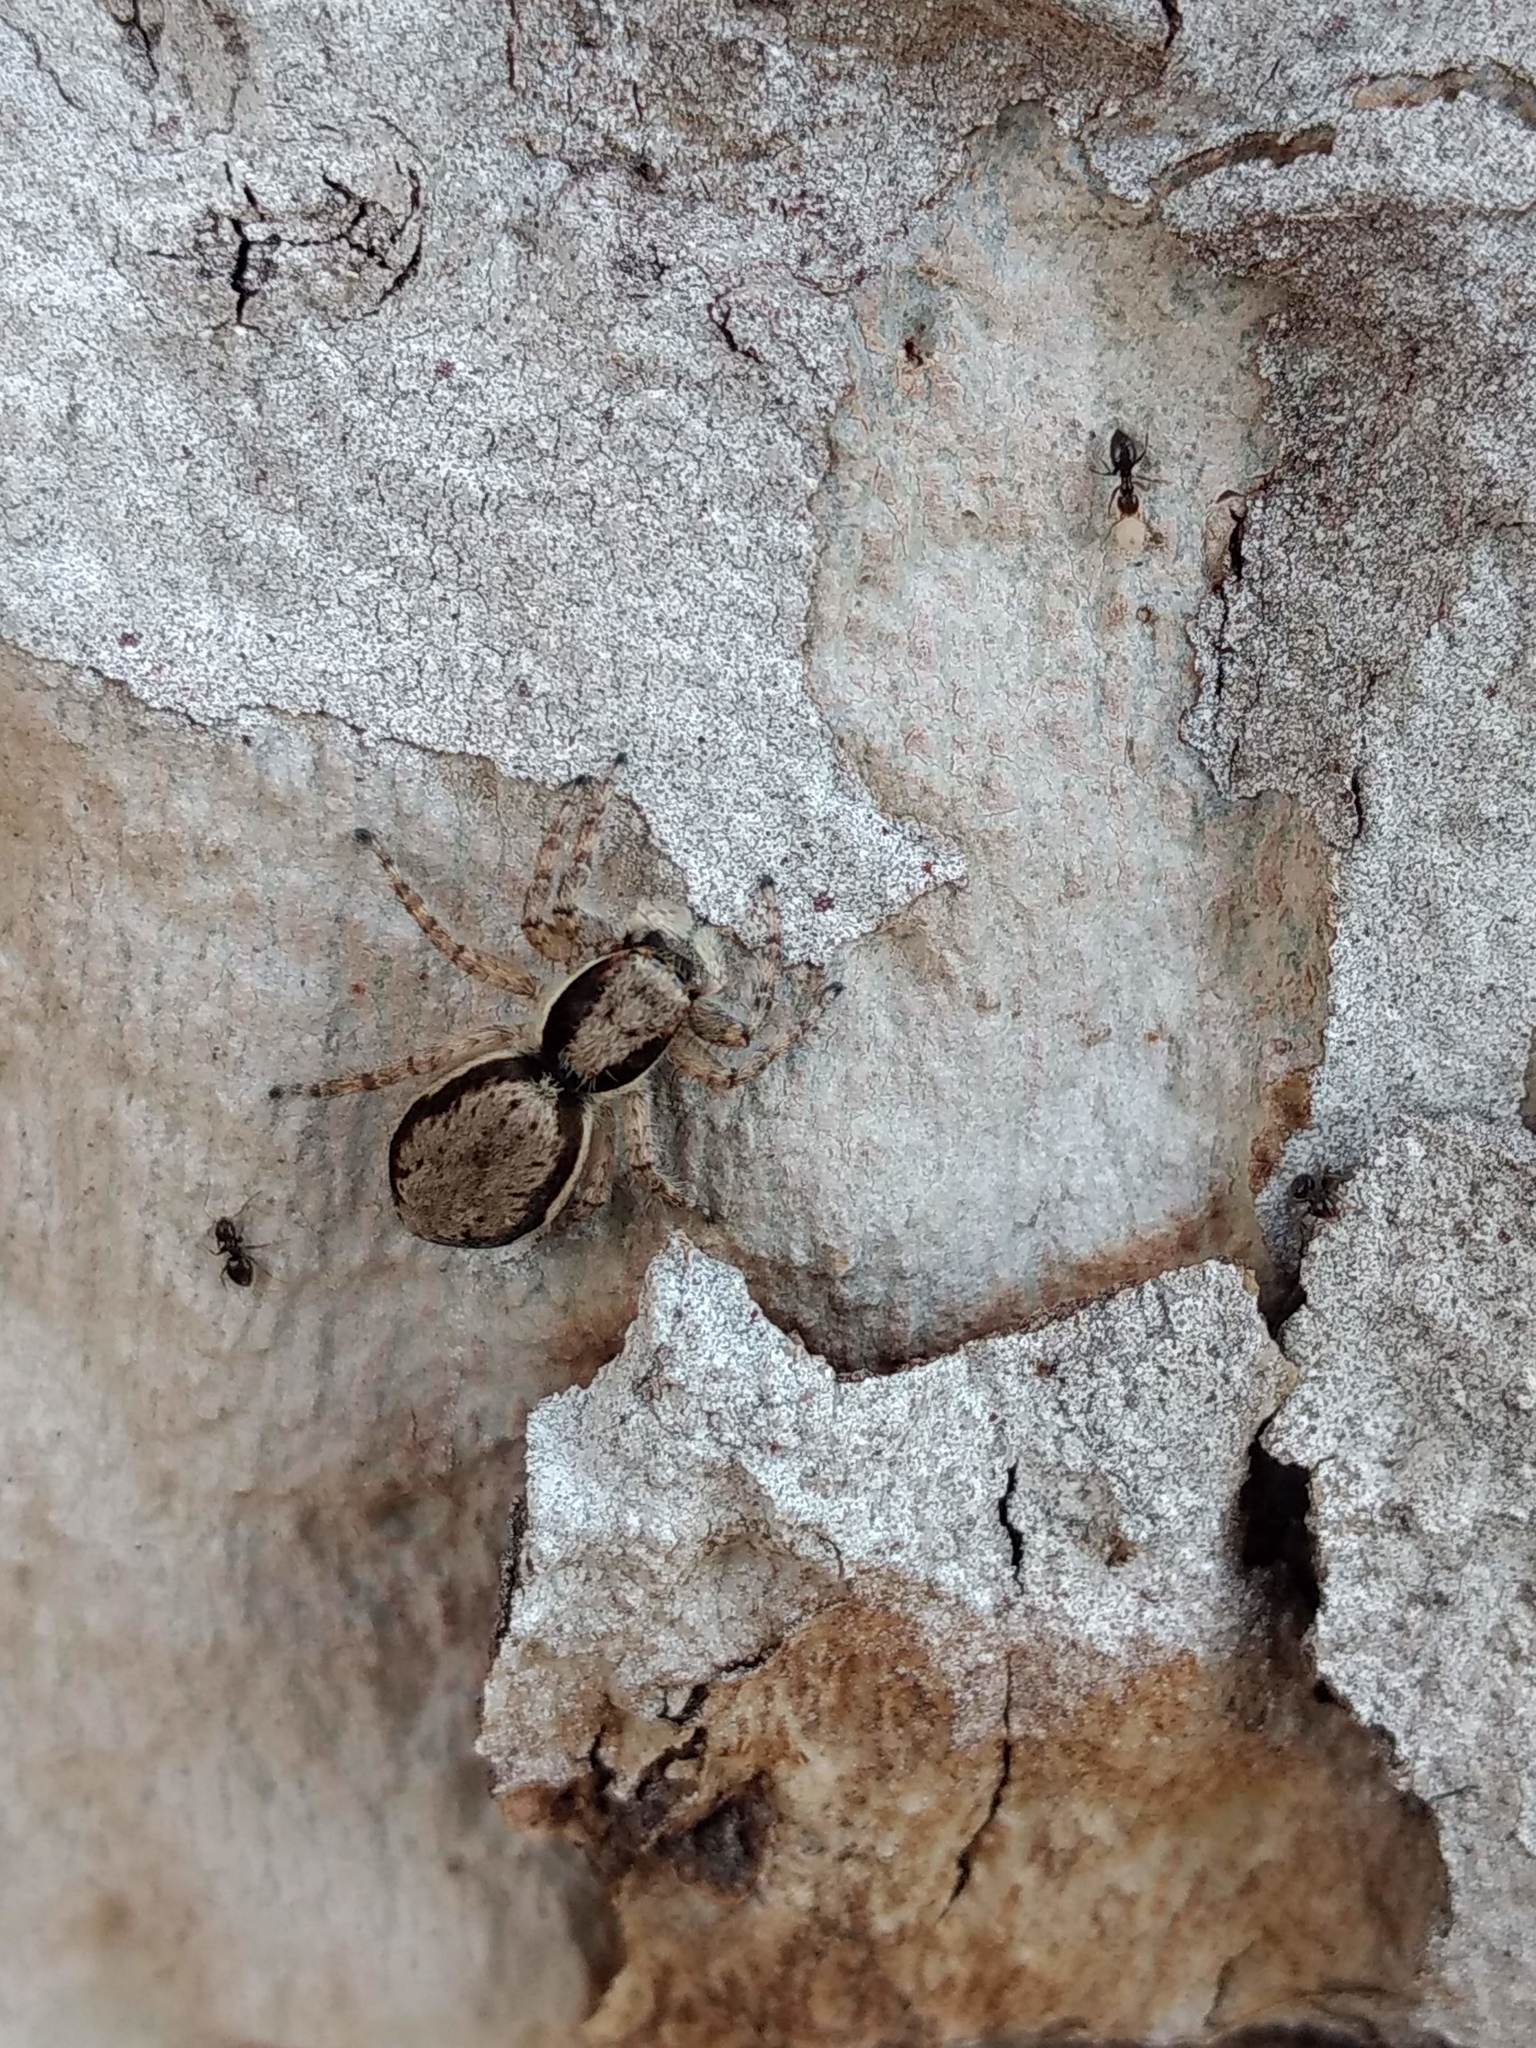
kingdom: Animalia
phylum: Arthropoda
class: Arachnida
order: Araneae
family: Salticidae
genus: Menemerus
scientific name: Menemerus bivittatus
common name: Gray wall jumper
